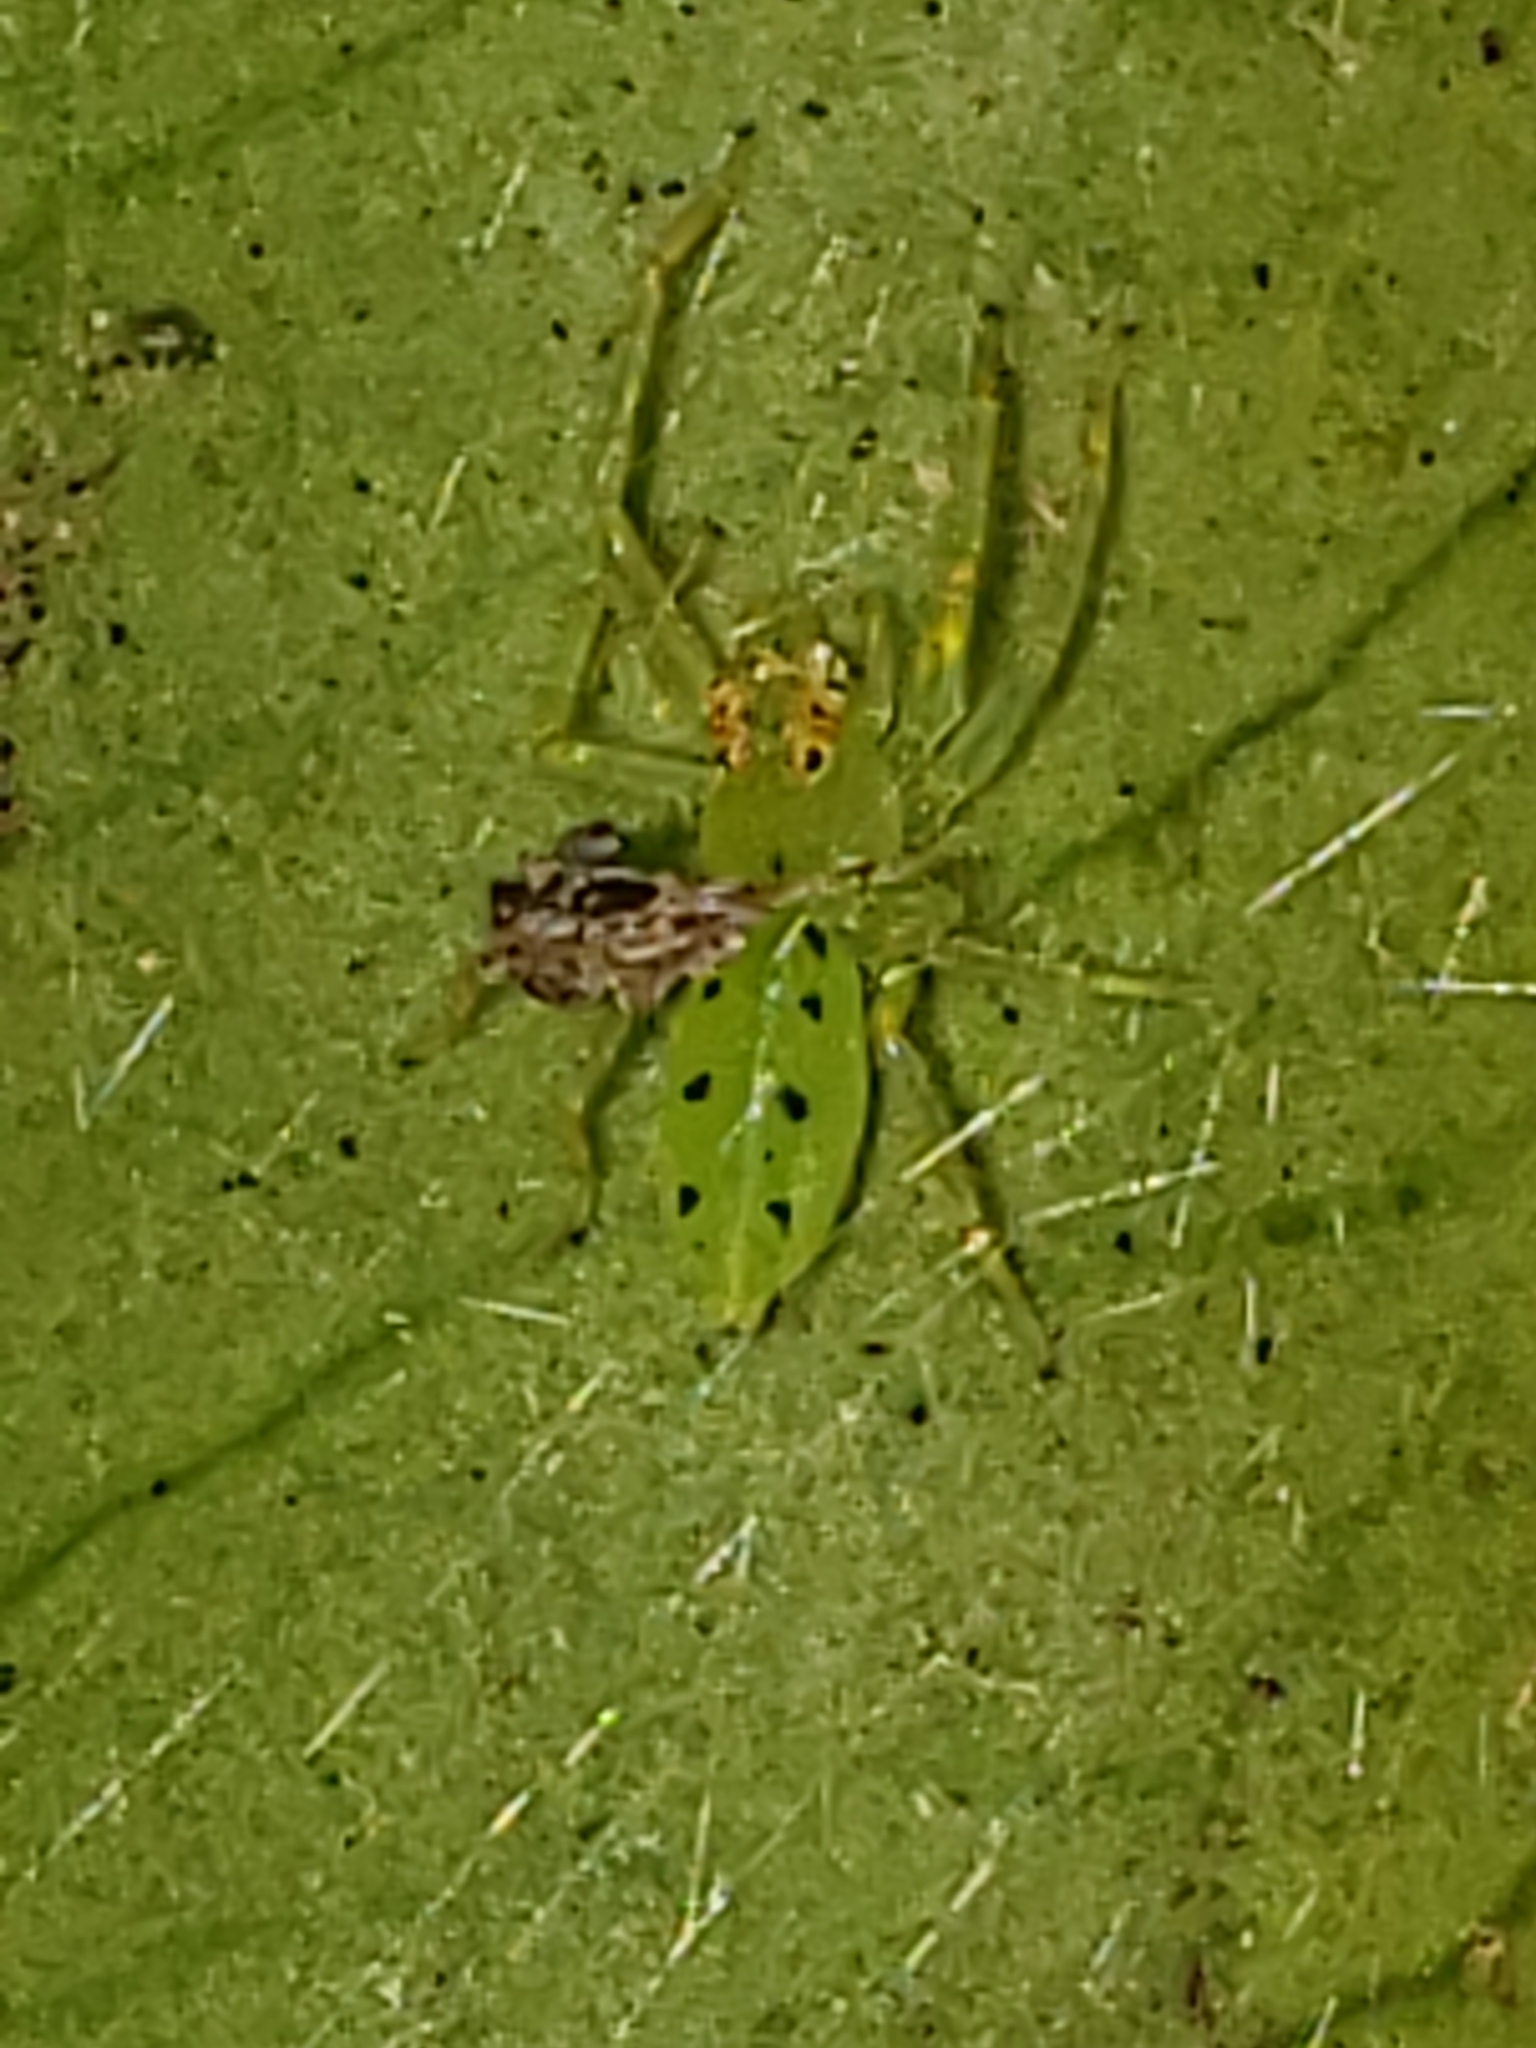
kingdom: Animalia
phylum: Arthropoda
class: Arachnida
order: Araneae
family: Salticidae
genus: Lyssomanes
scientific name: Lyssomanes viridis
